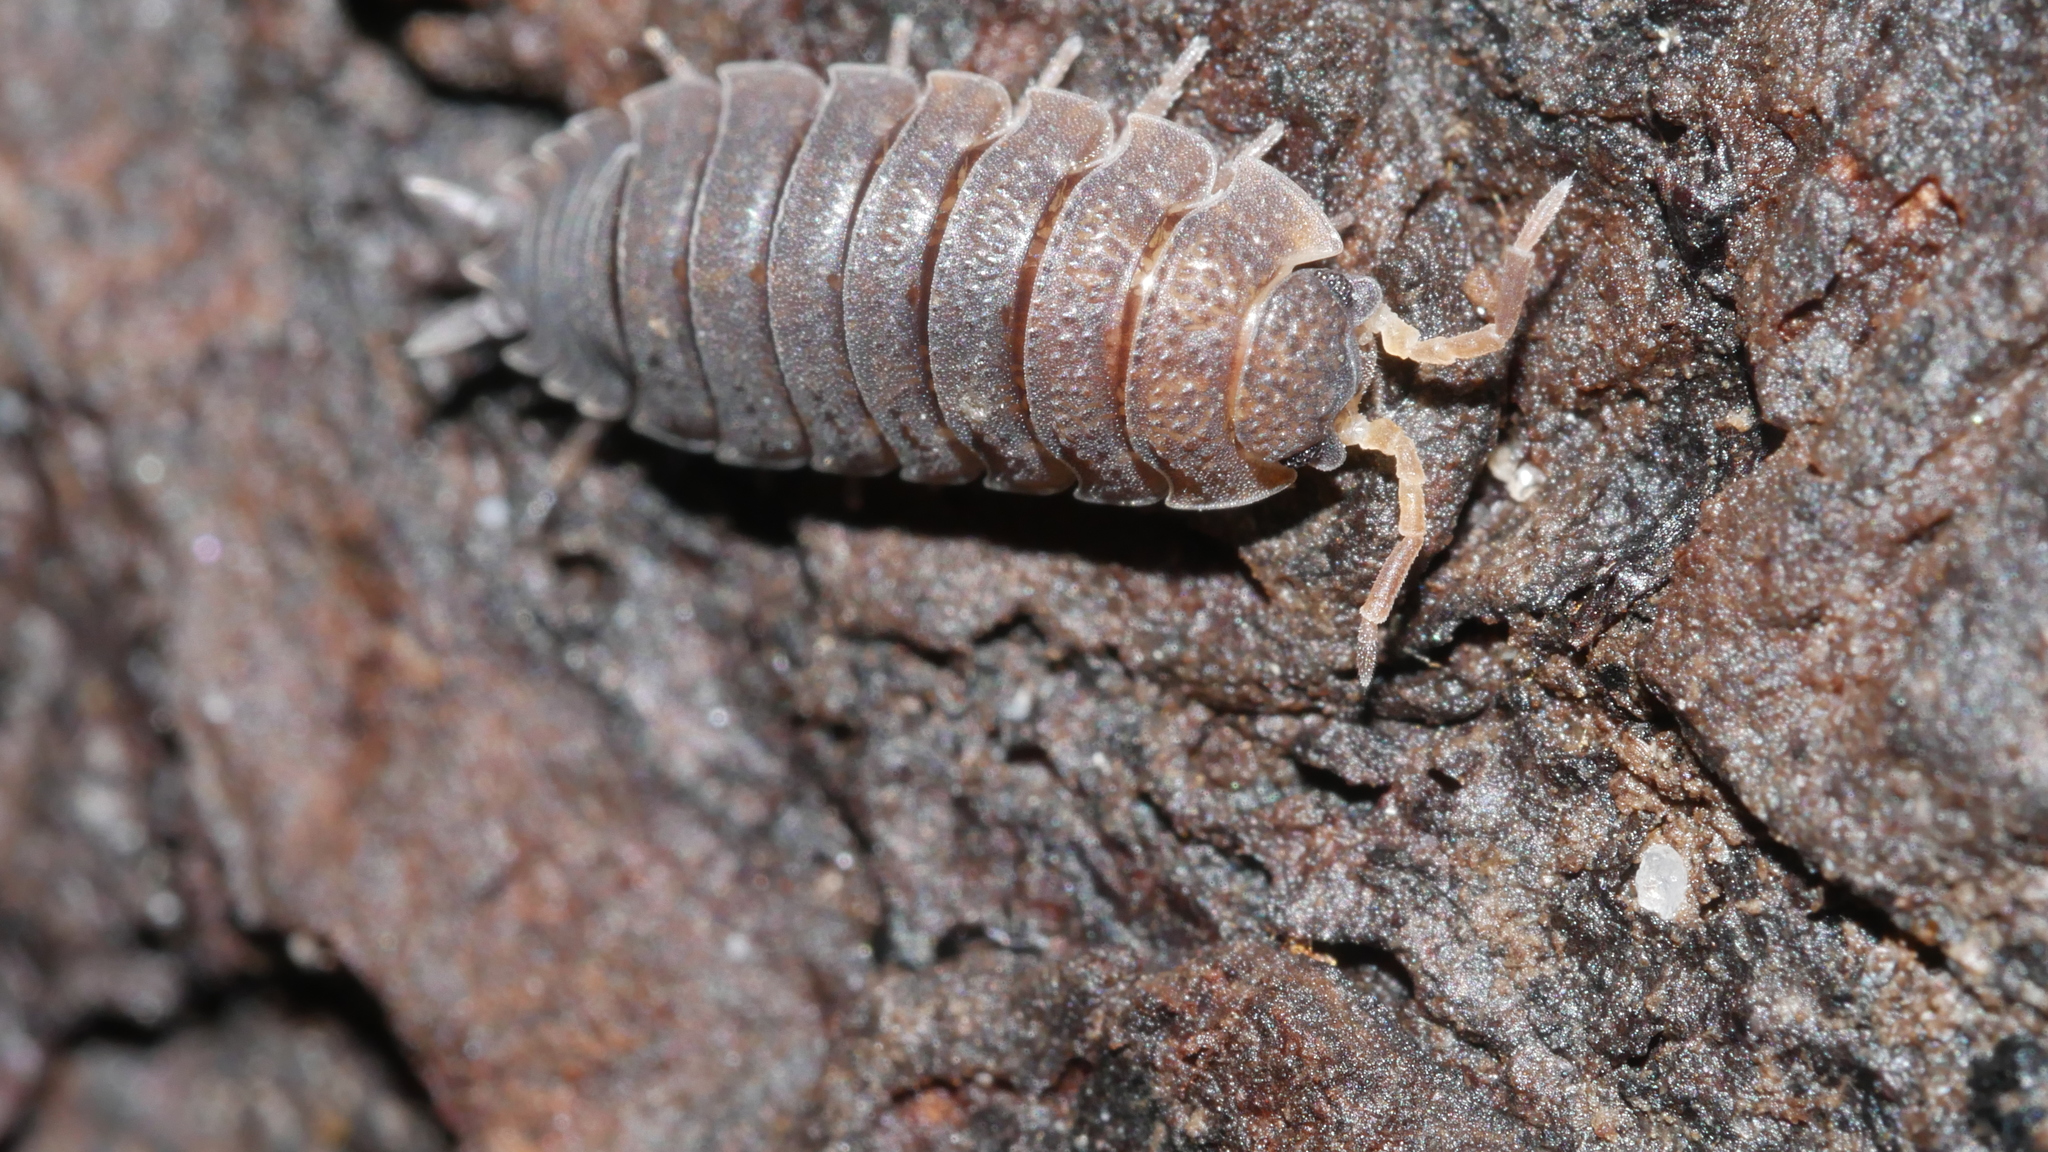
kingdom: Animalia
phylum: Arthropoda
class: Malacostraca
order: Isopoda
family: Porcellionidae
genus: Porcellio
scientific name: Porcellio scaber
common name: Common rough woodlouse
